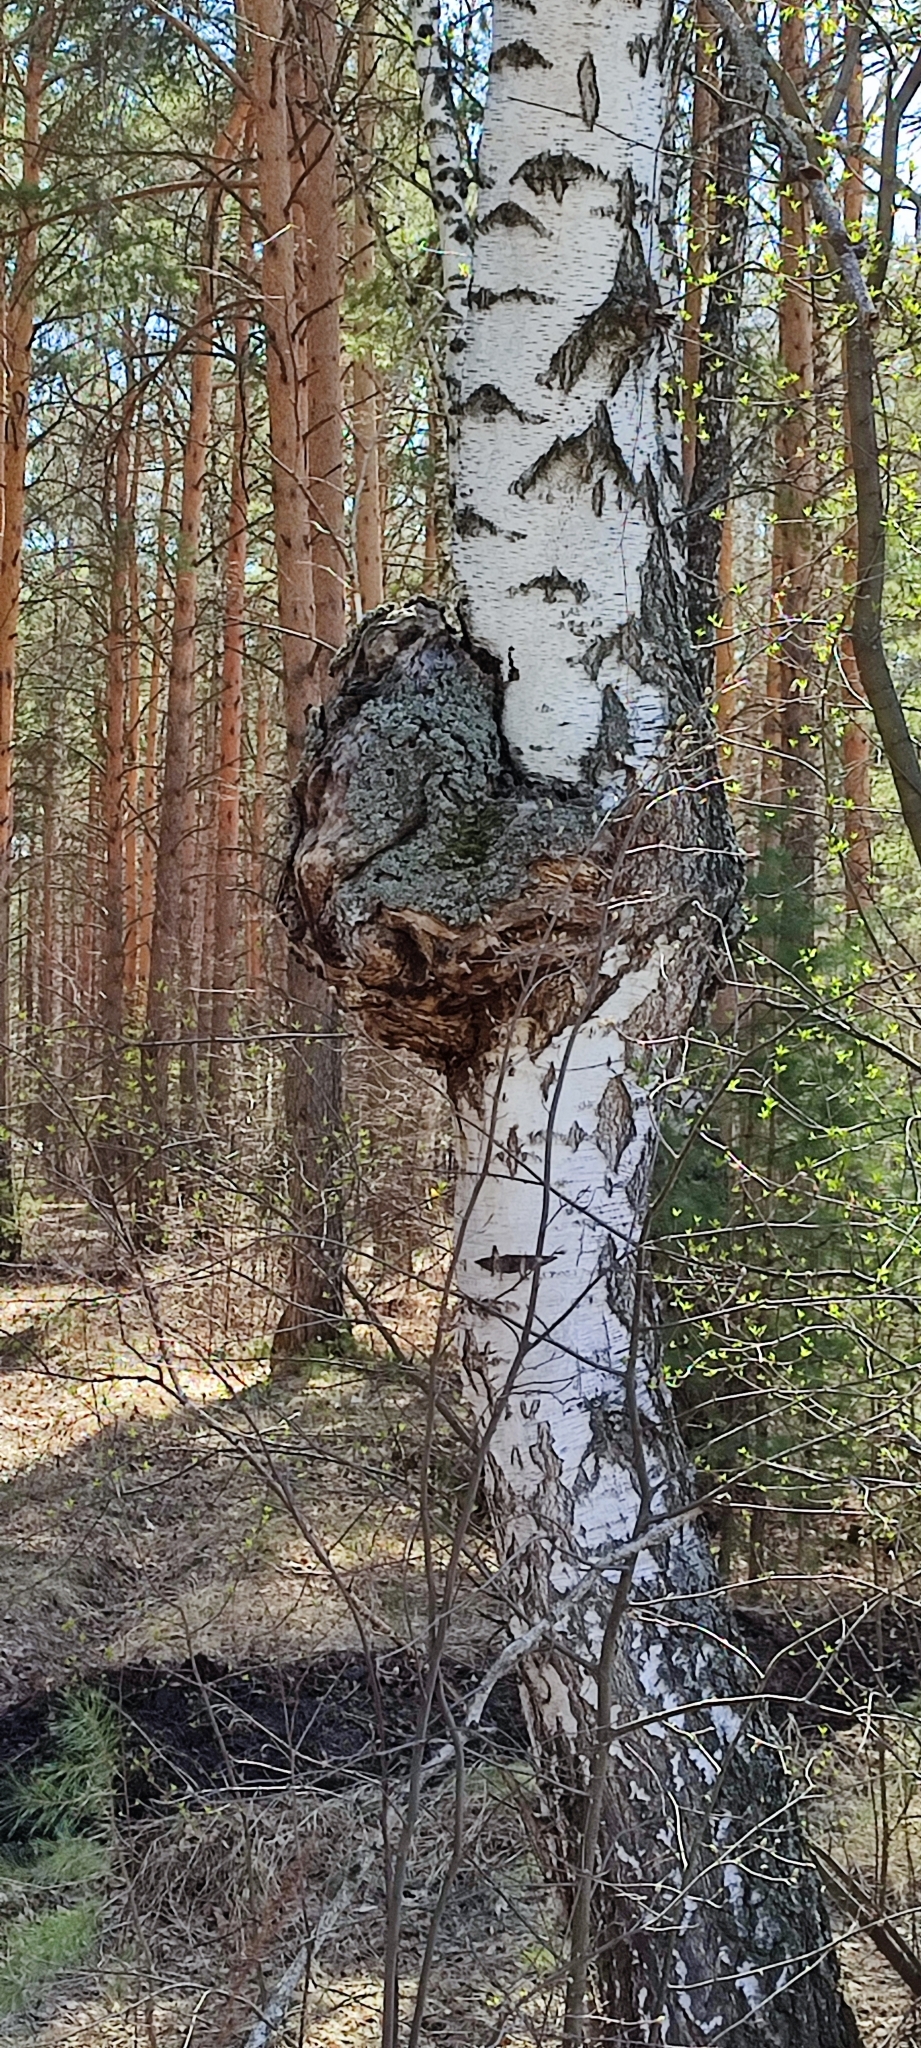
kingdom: Plantae
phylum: Tracheophyta
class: Magnoliopsida
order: Fagales
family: Betulaceae
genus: Betula
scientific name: Betula pendula
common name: Silver birch
